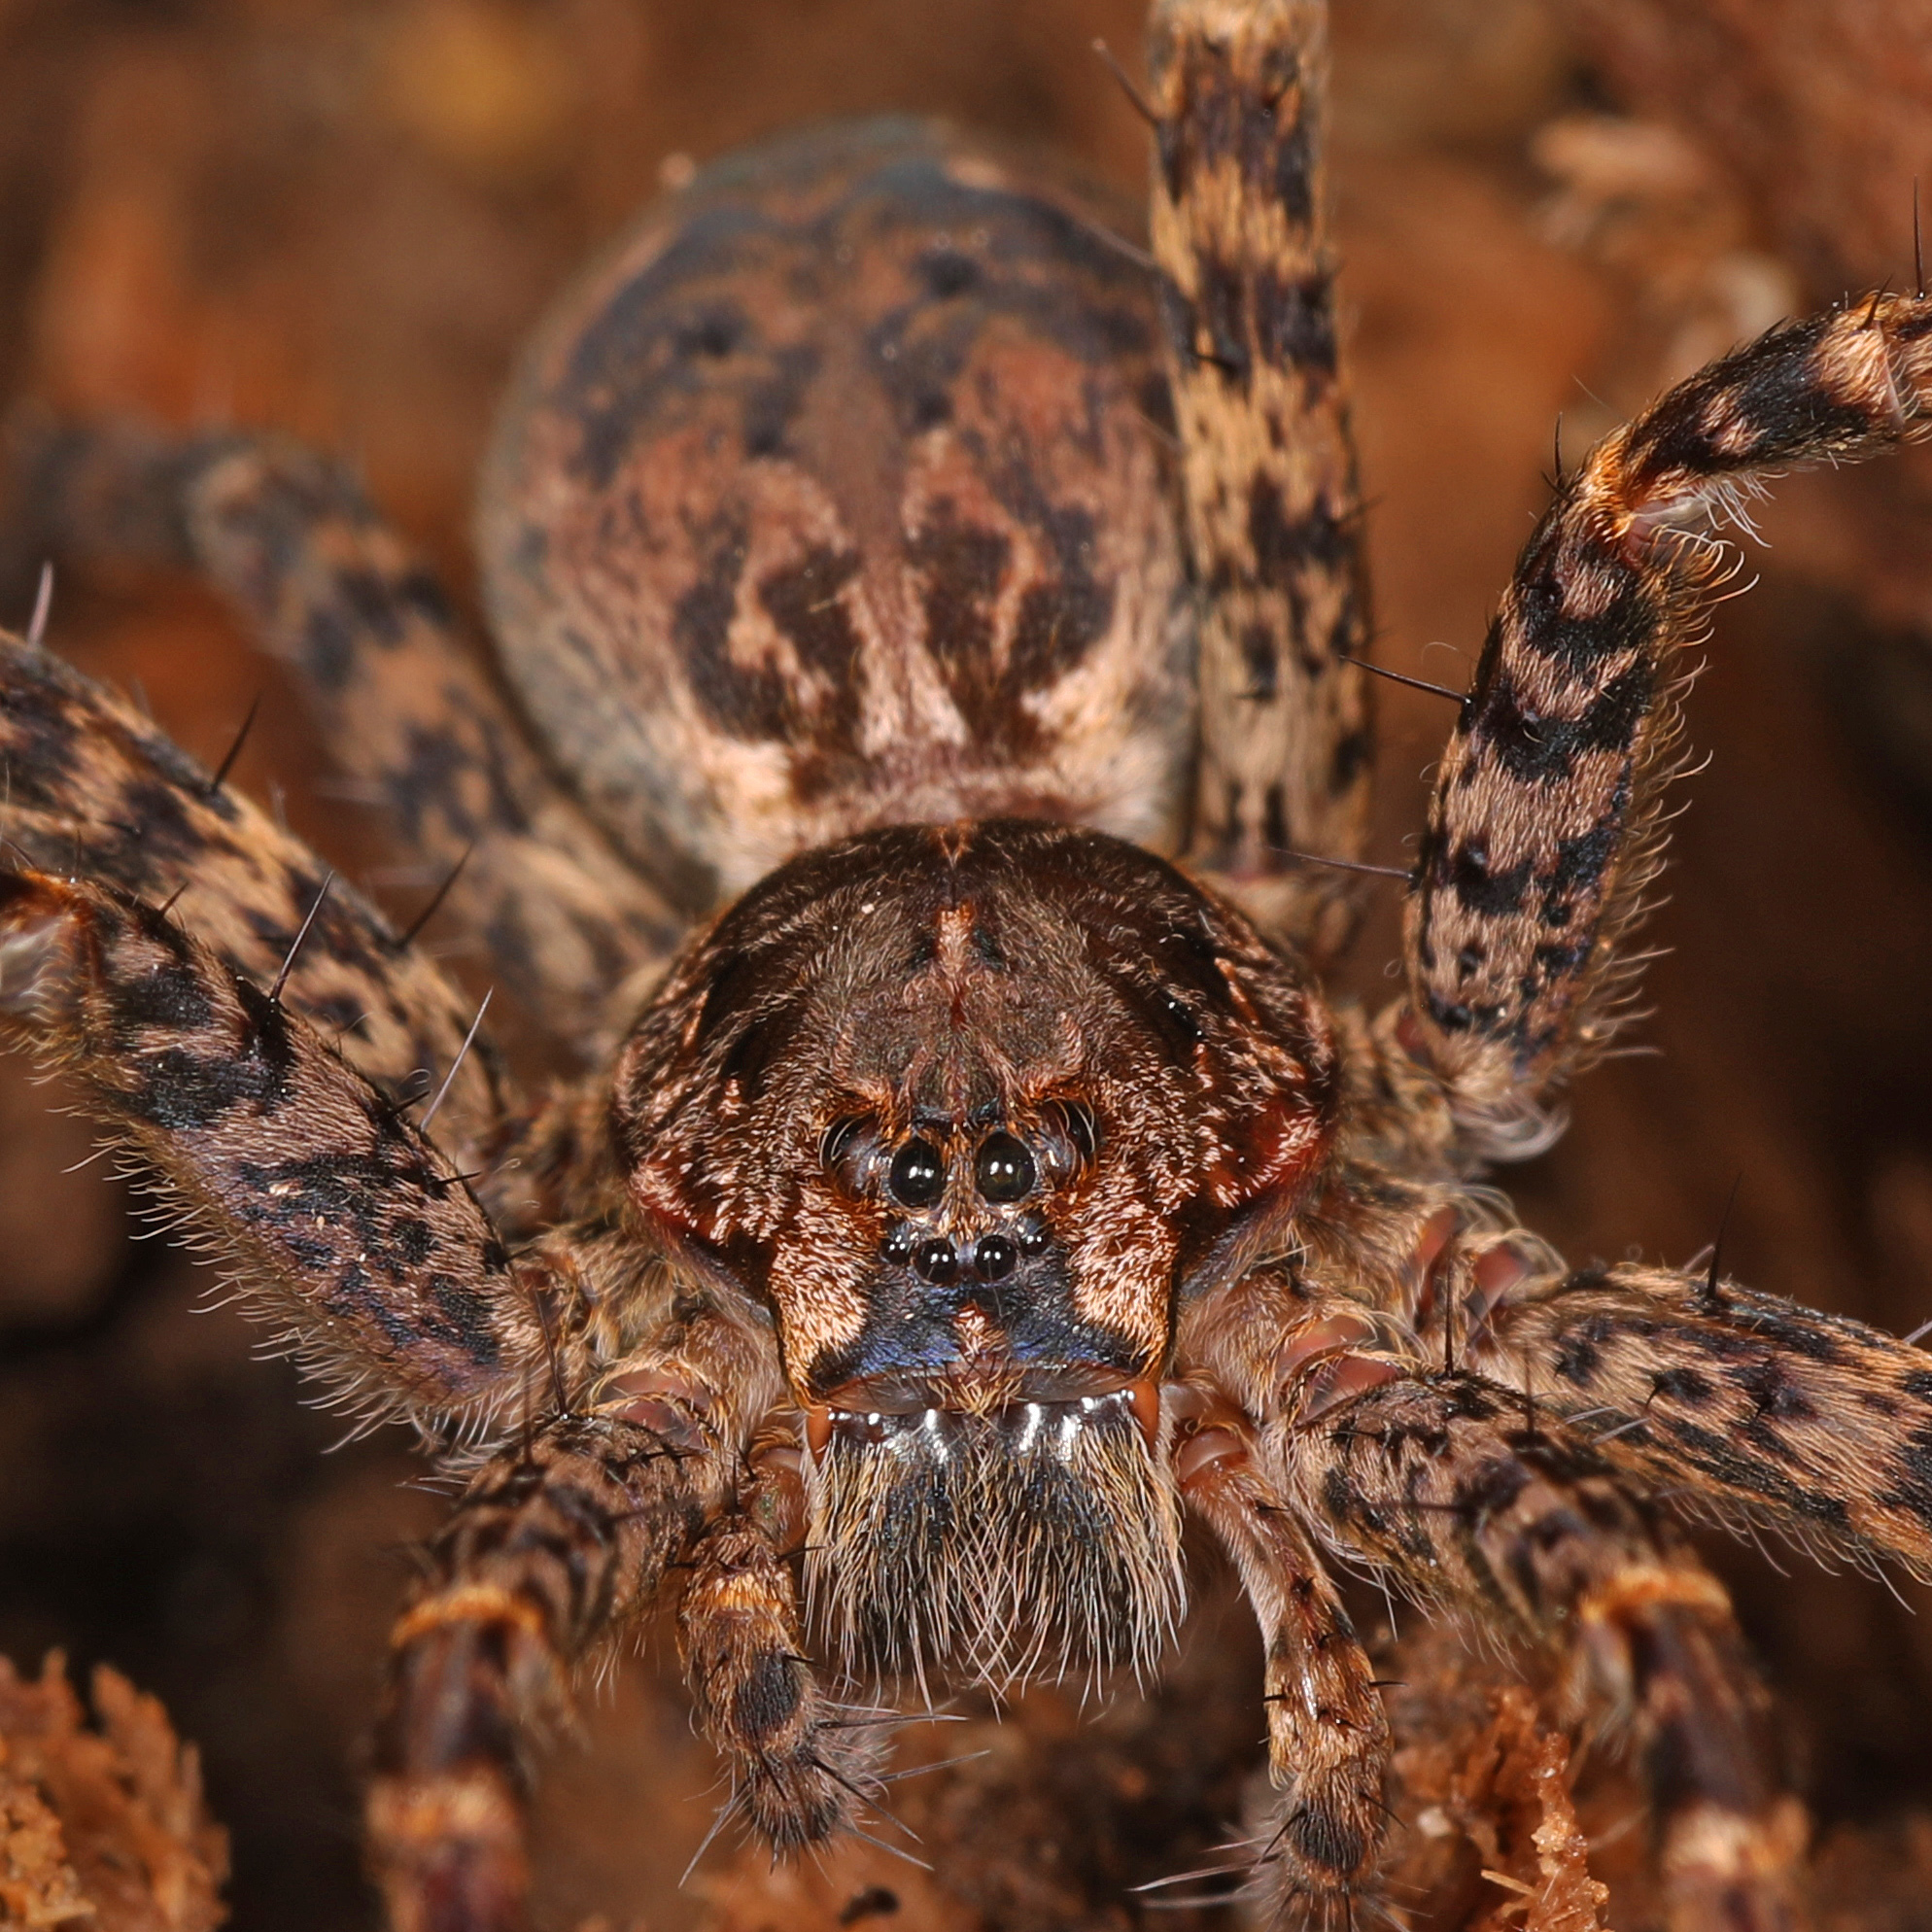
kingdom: Animalia
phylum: Arthropoda
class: Arachnida
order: Araneae
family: Pisauridae
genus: Dolomedes
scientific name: Dolomedes tenebrosus
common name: Dark fishing spider
